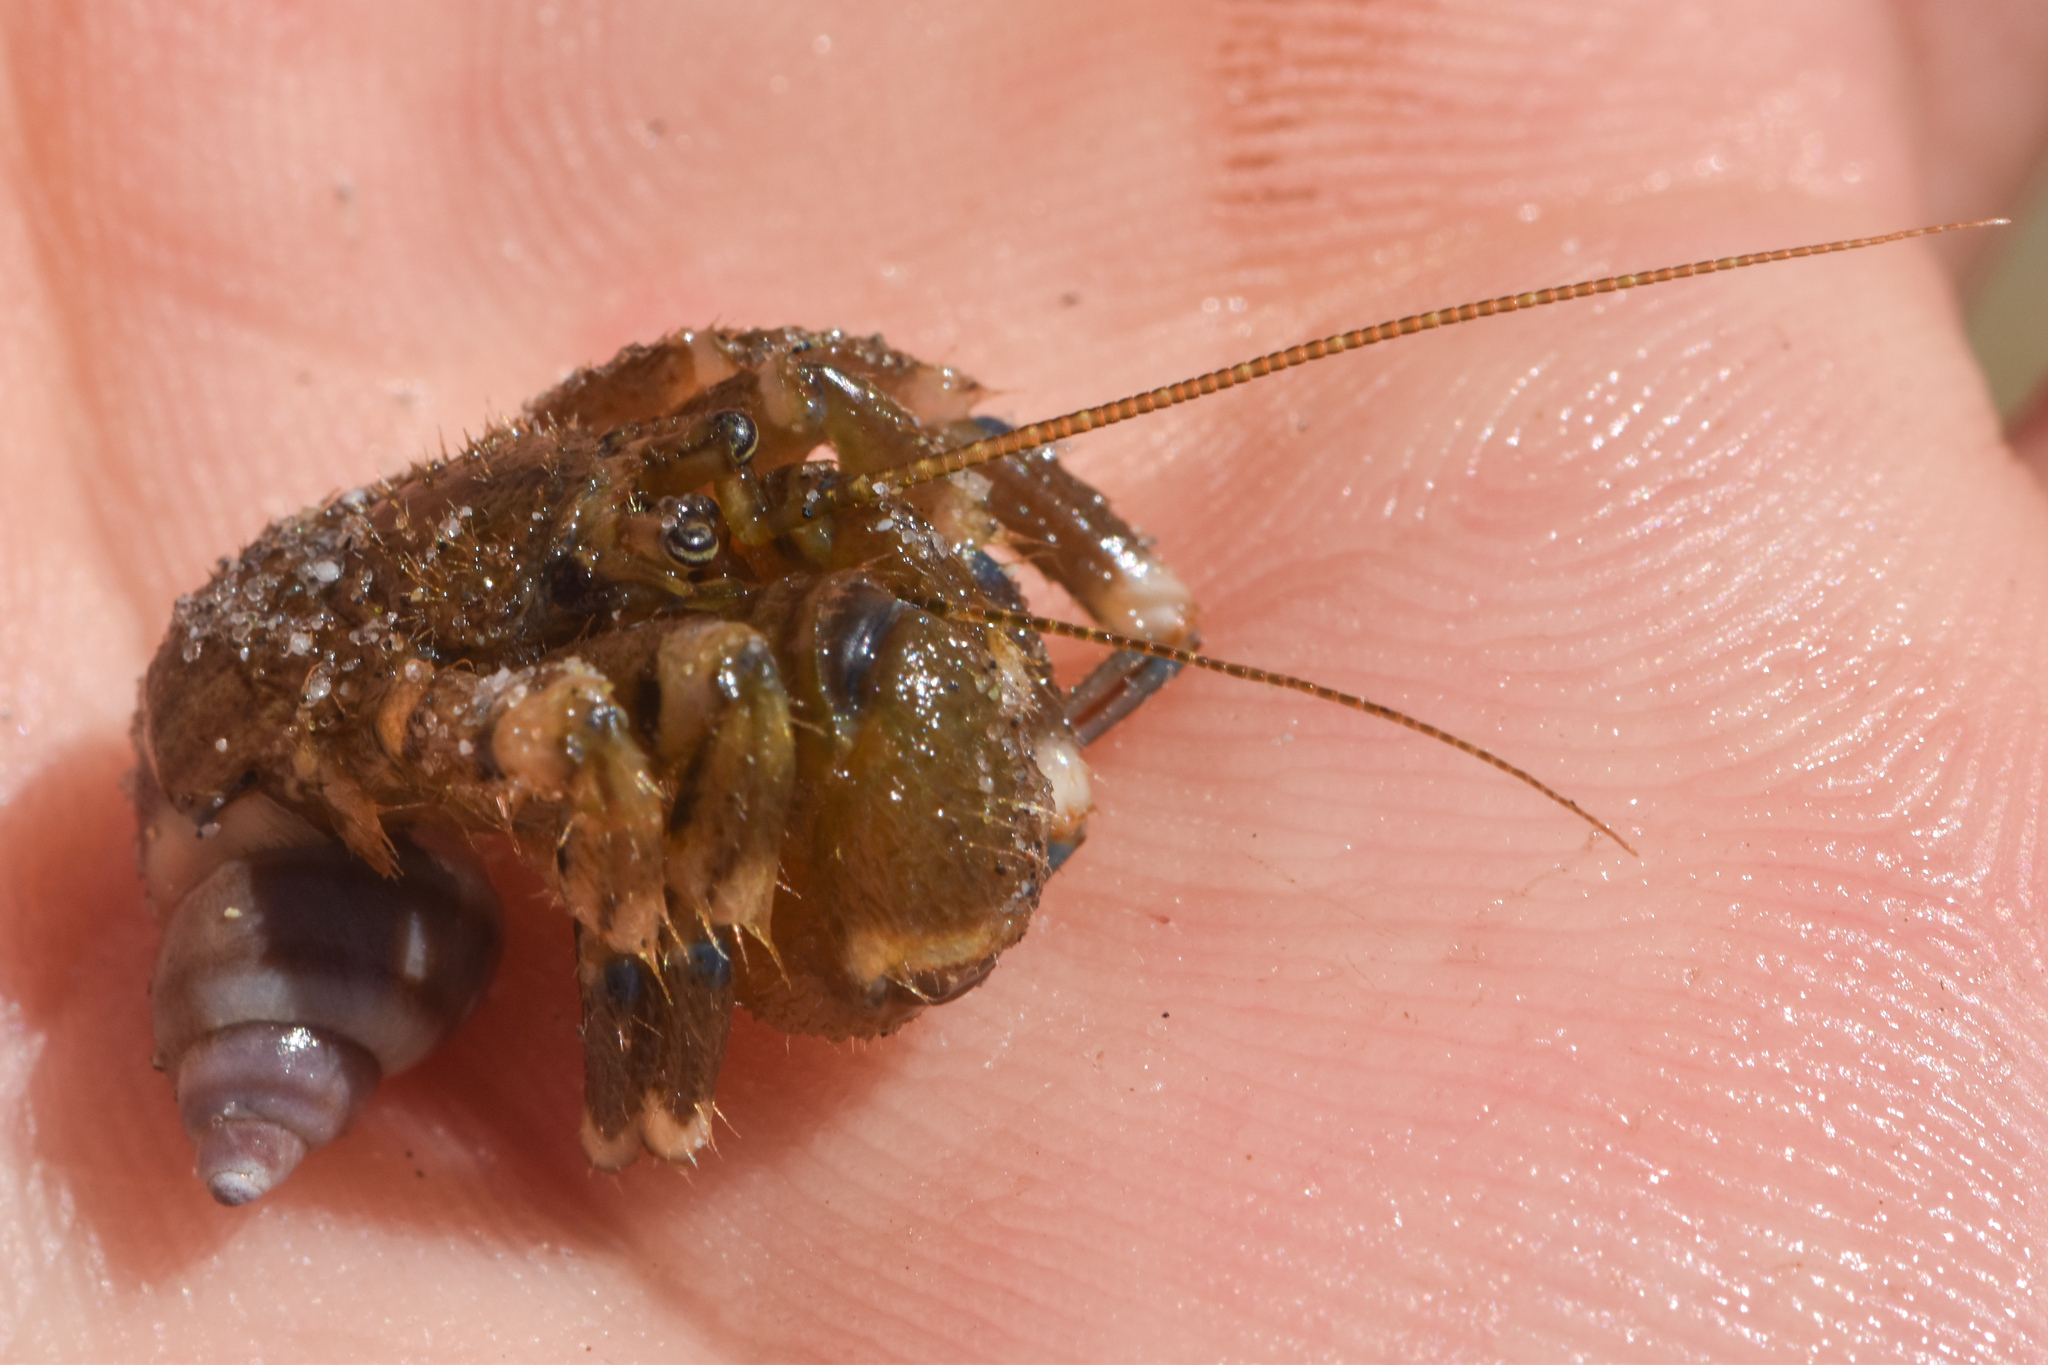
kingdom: Animalia
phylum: Arthropoda
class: Malacostraca
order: Decapoda
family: Paguridae
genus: Pagurus
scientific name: Pagurus hirsutiusculus
